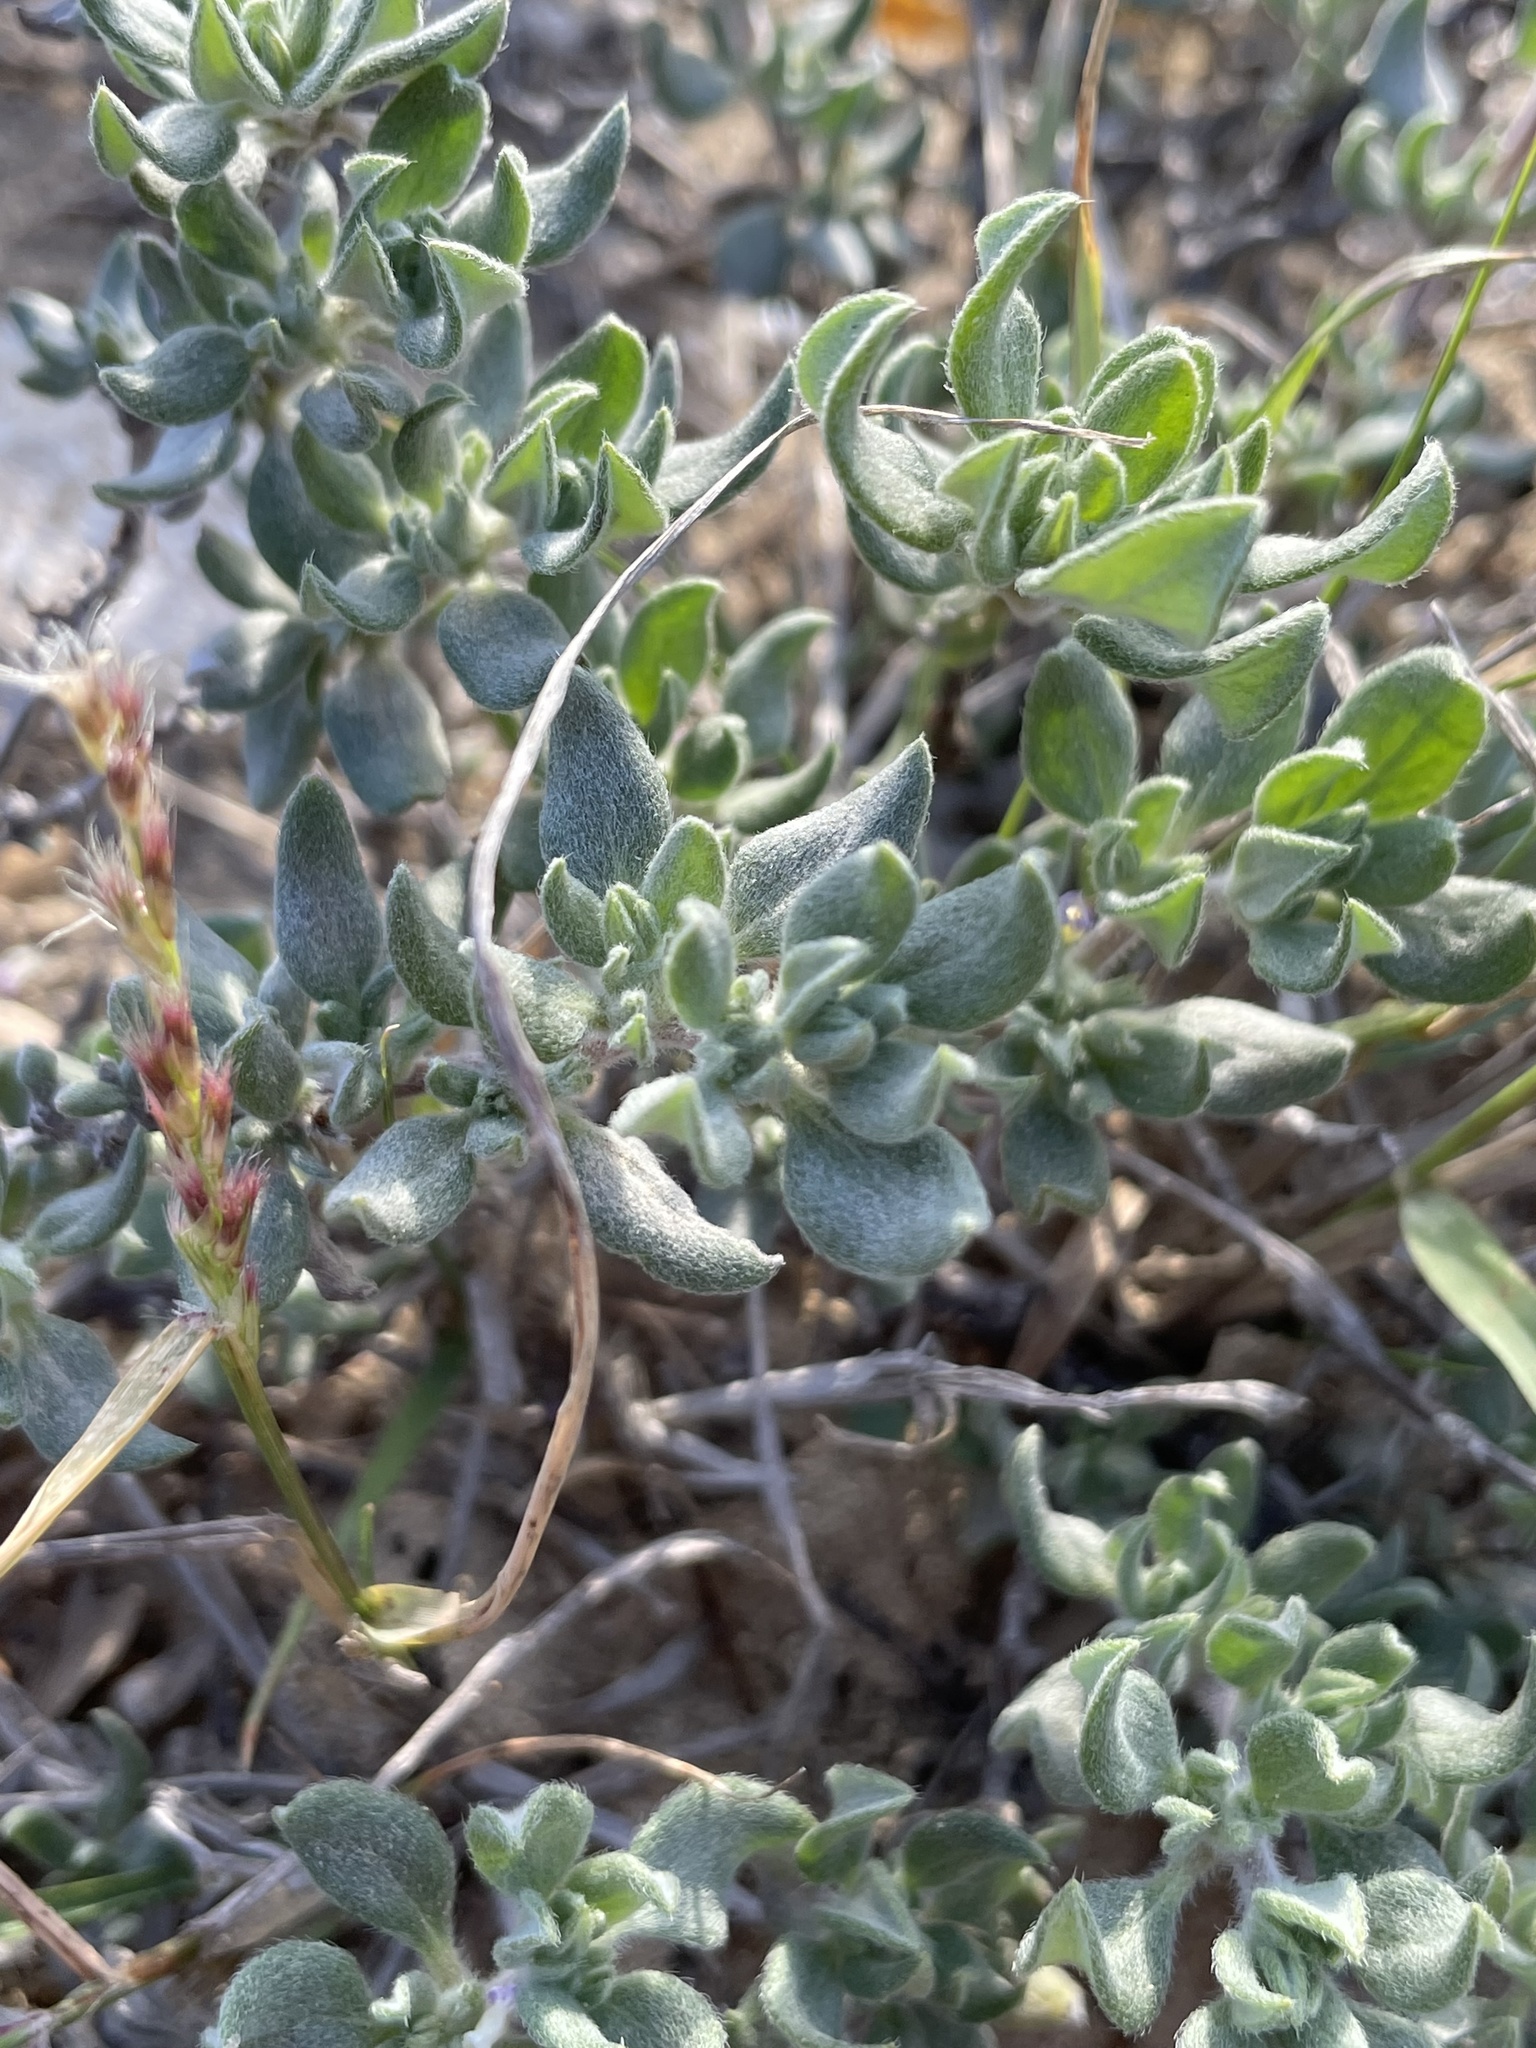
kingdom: Plantae
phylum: Tracheophyta
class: Magnoliopsida
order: Boraginales
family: Ehretiaceae
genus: Tiquilia
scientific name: Tiquilia canescens
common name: Hairy tiquilia
